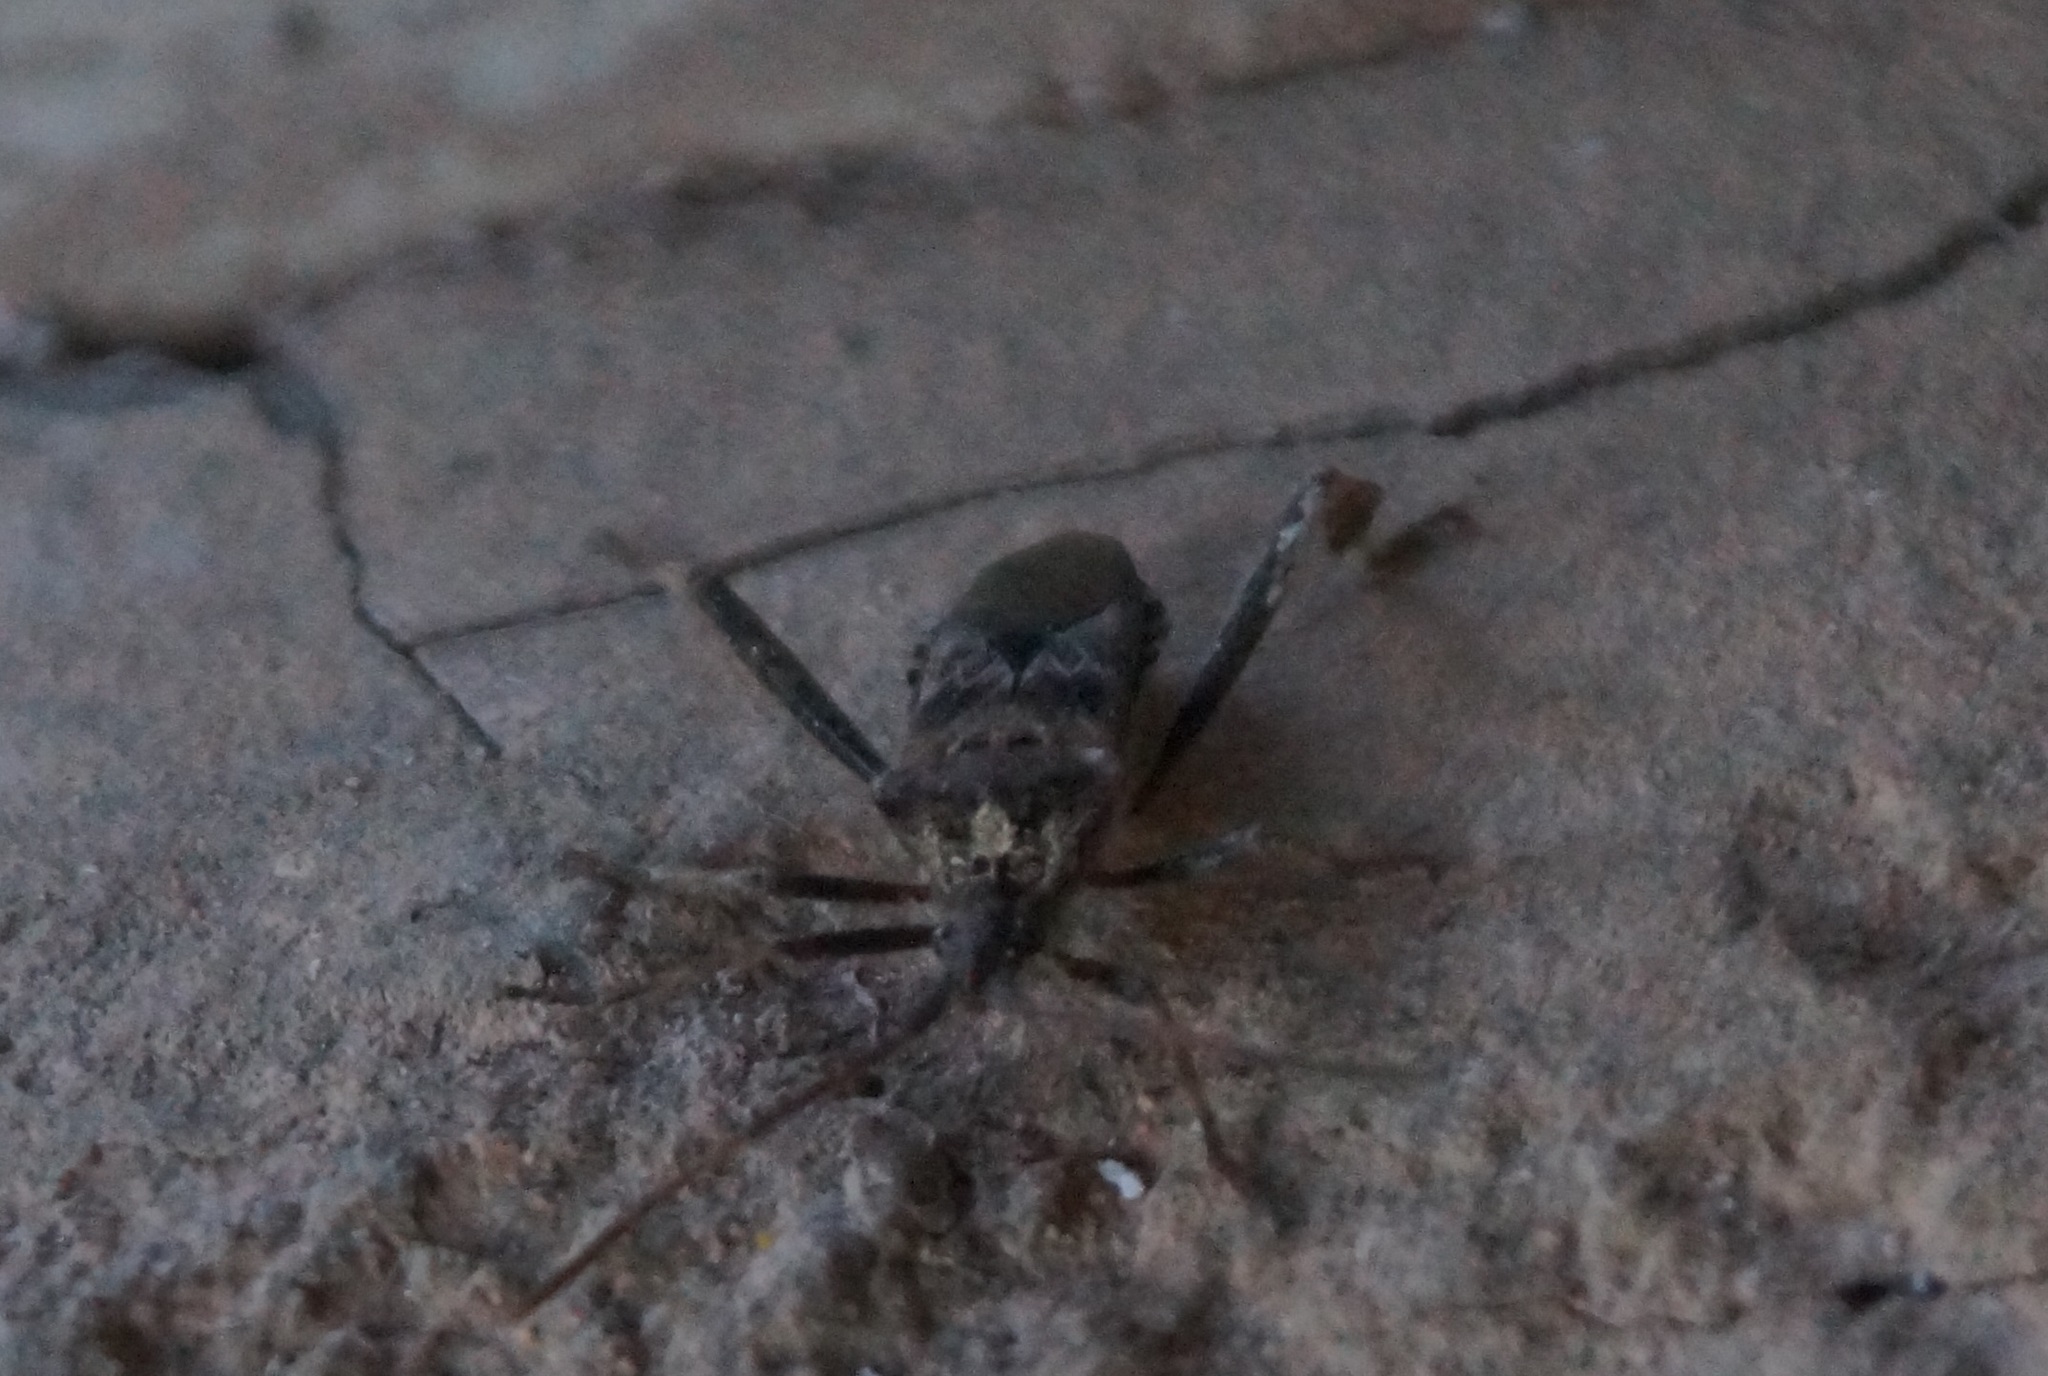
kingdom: Animalia
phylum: Arthropoda
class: Insecta
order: Hemiptera
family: Coreidae
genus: Leptoglossus
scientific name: Leptoglossus occidentalis
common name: Western conifer-seed bug
